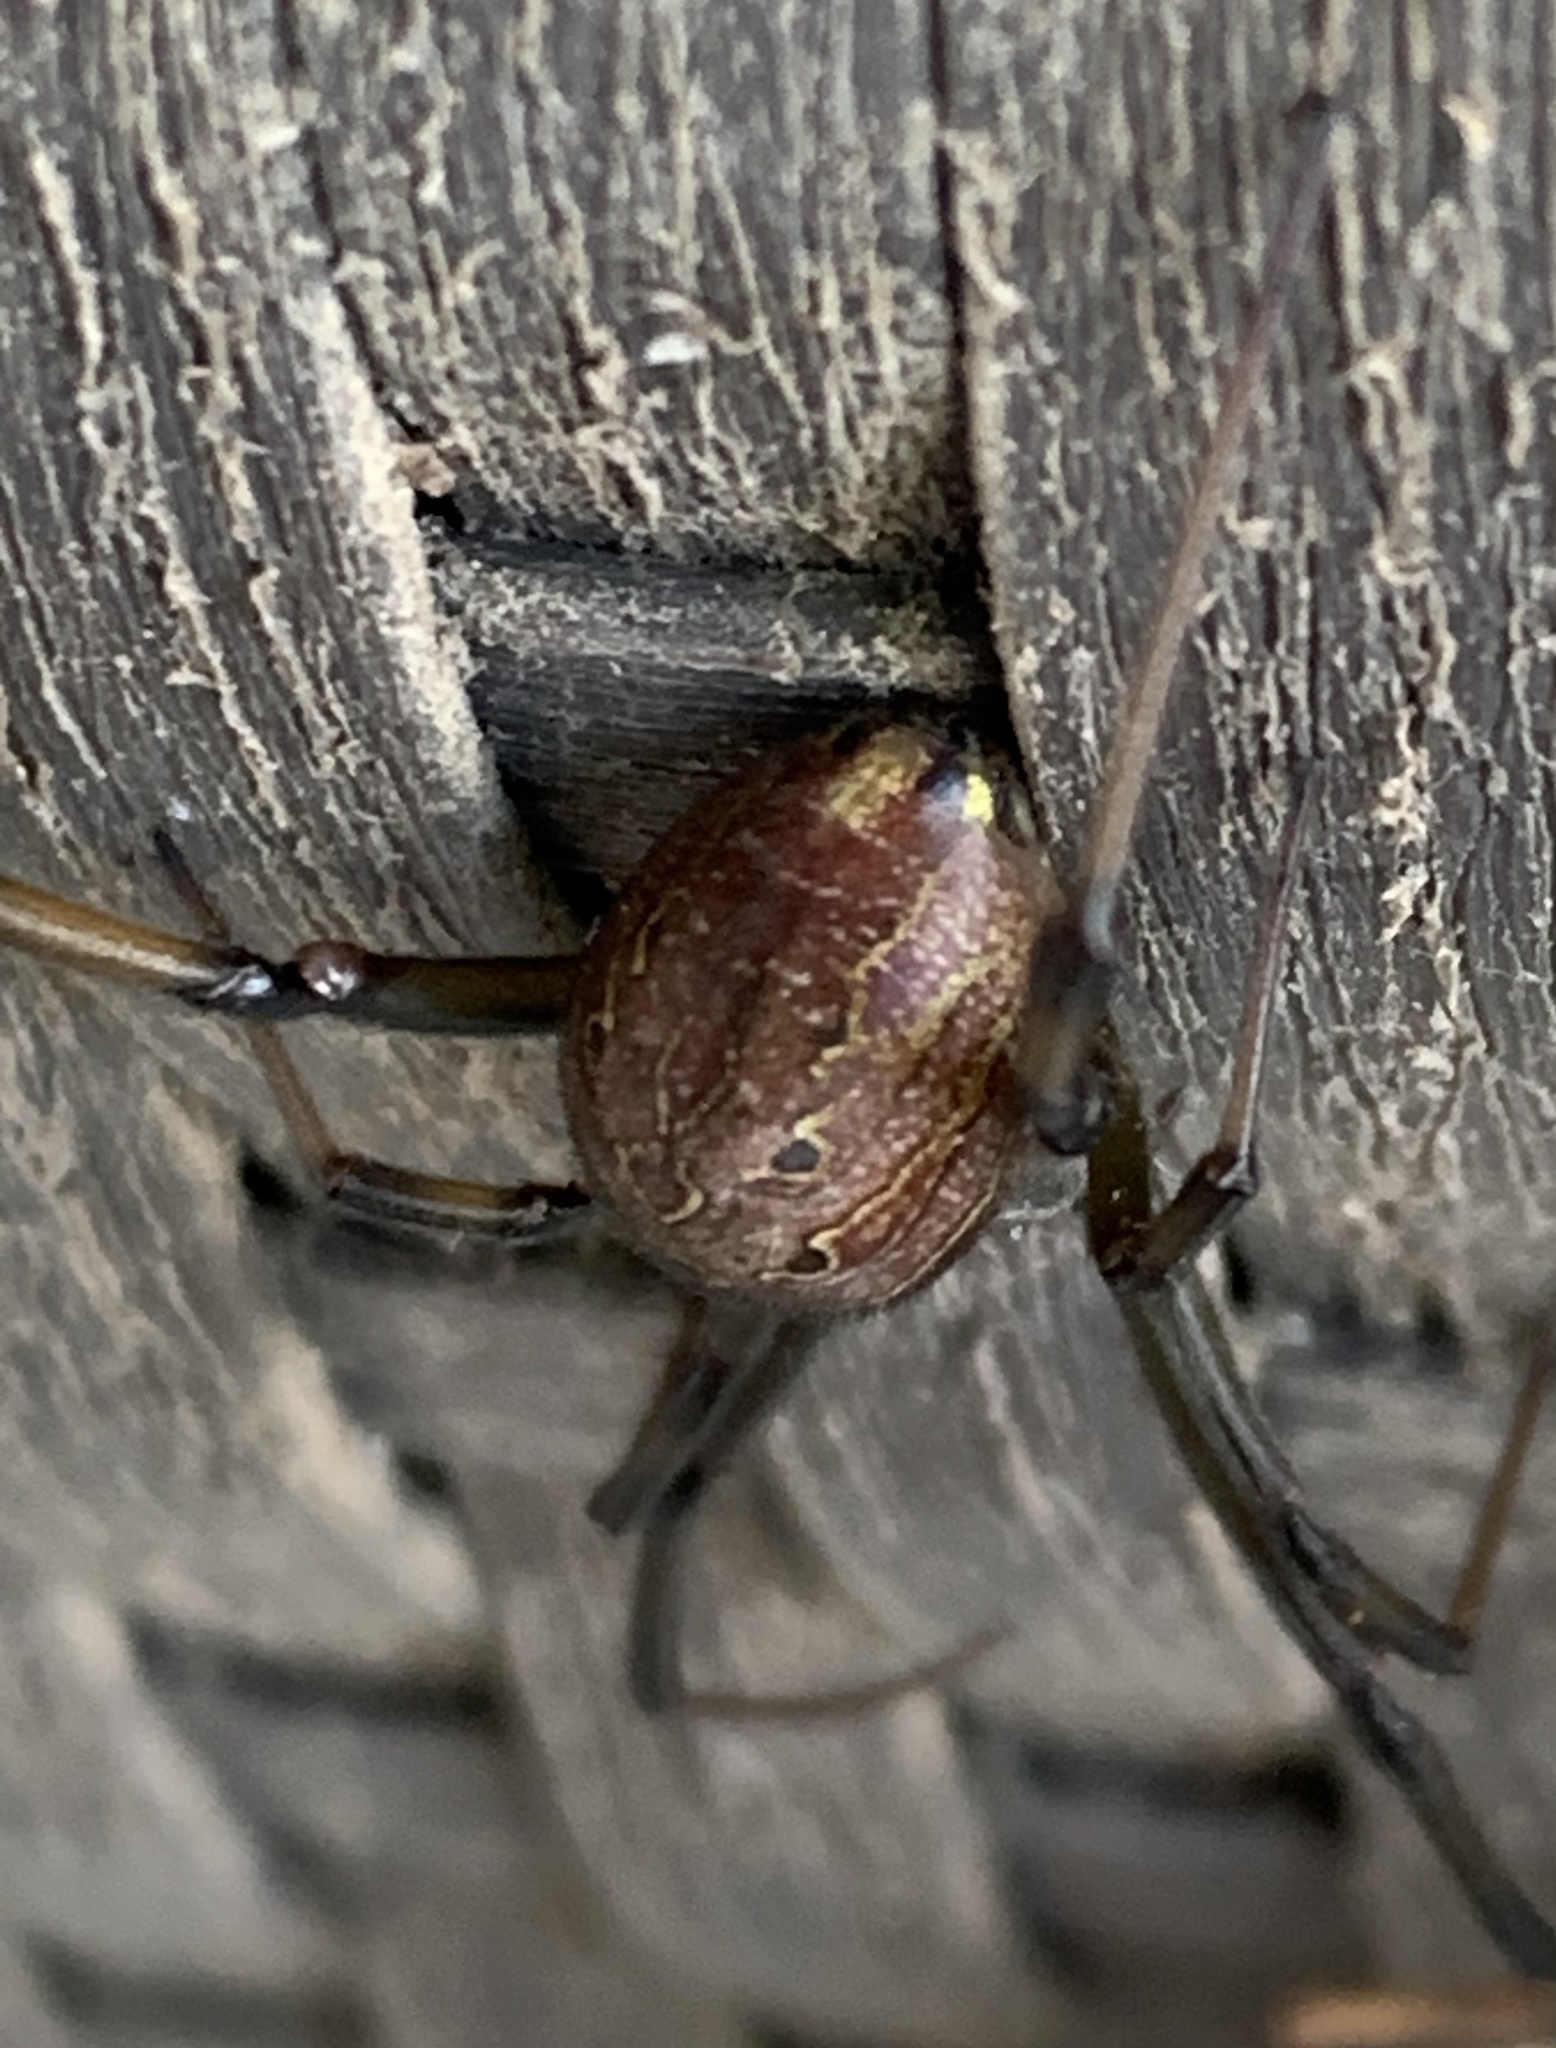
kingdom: Animalia
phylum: Arthropoda
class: Arachnida
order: Araneae
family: Theridiidae
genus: Latrodectus
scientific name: Latrodectus geometricus
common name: Brown widow spider
